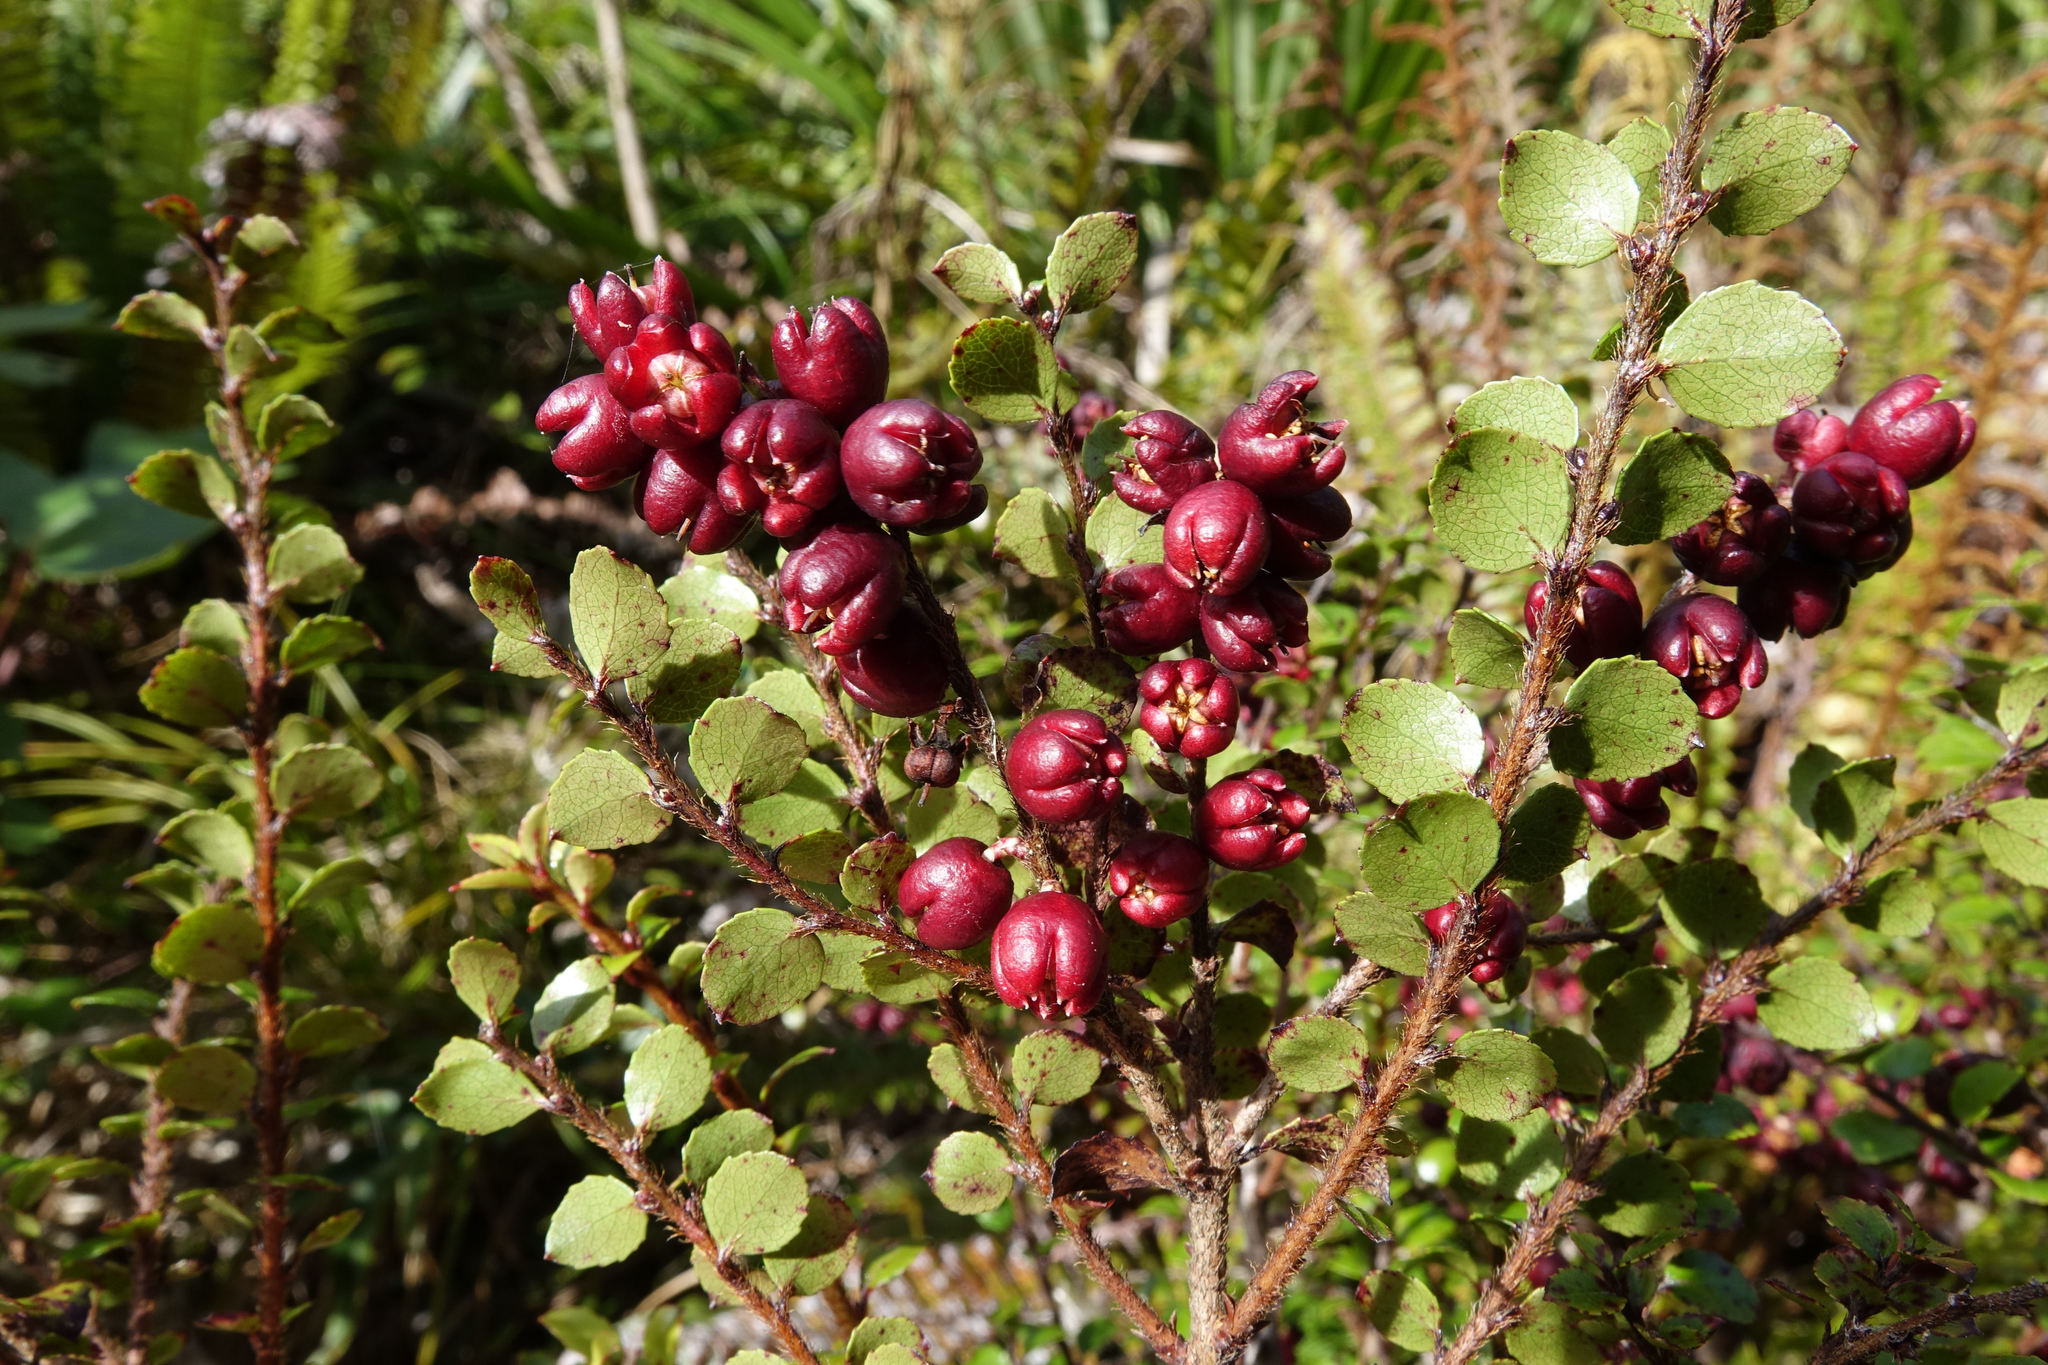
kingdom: Plantae
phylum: Tracheophyta
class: Magnoliopsida
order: Ericales
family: Ericaceae
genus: Gaultheria
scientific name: Gaultheria antipoda
